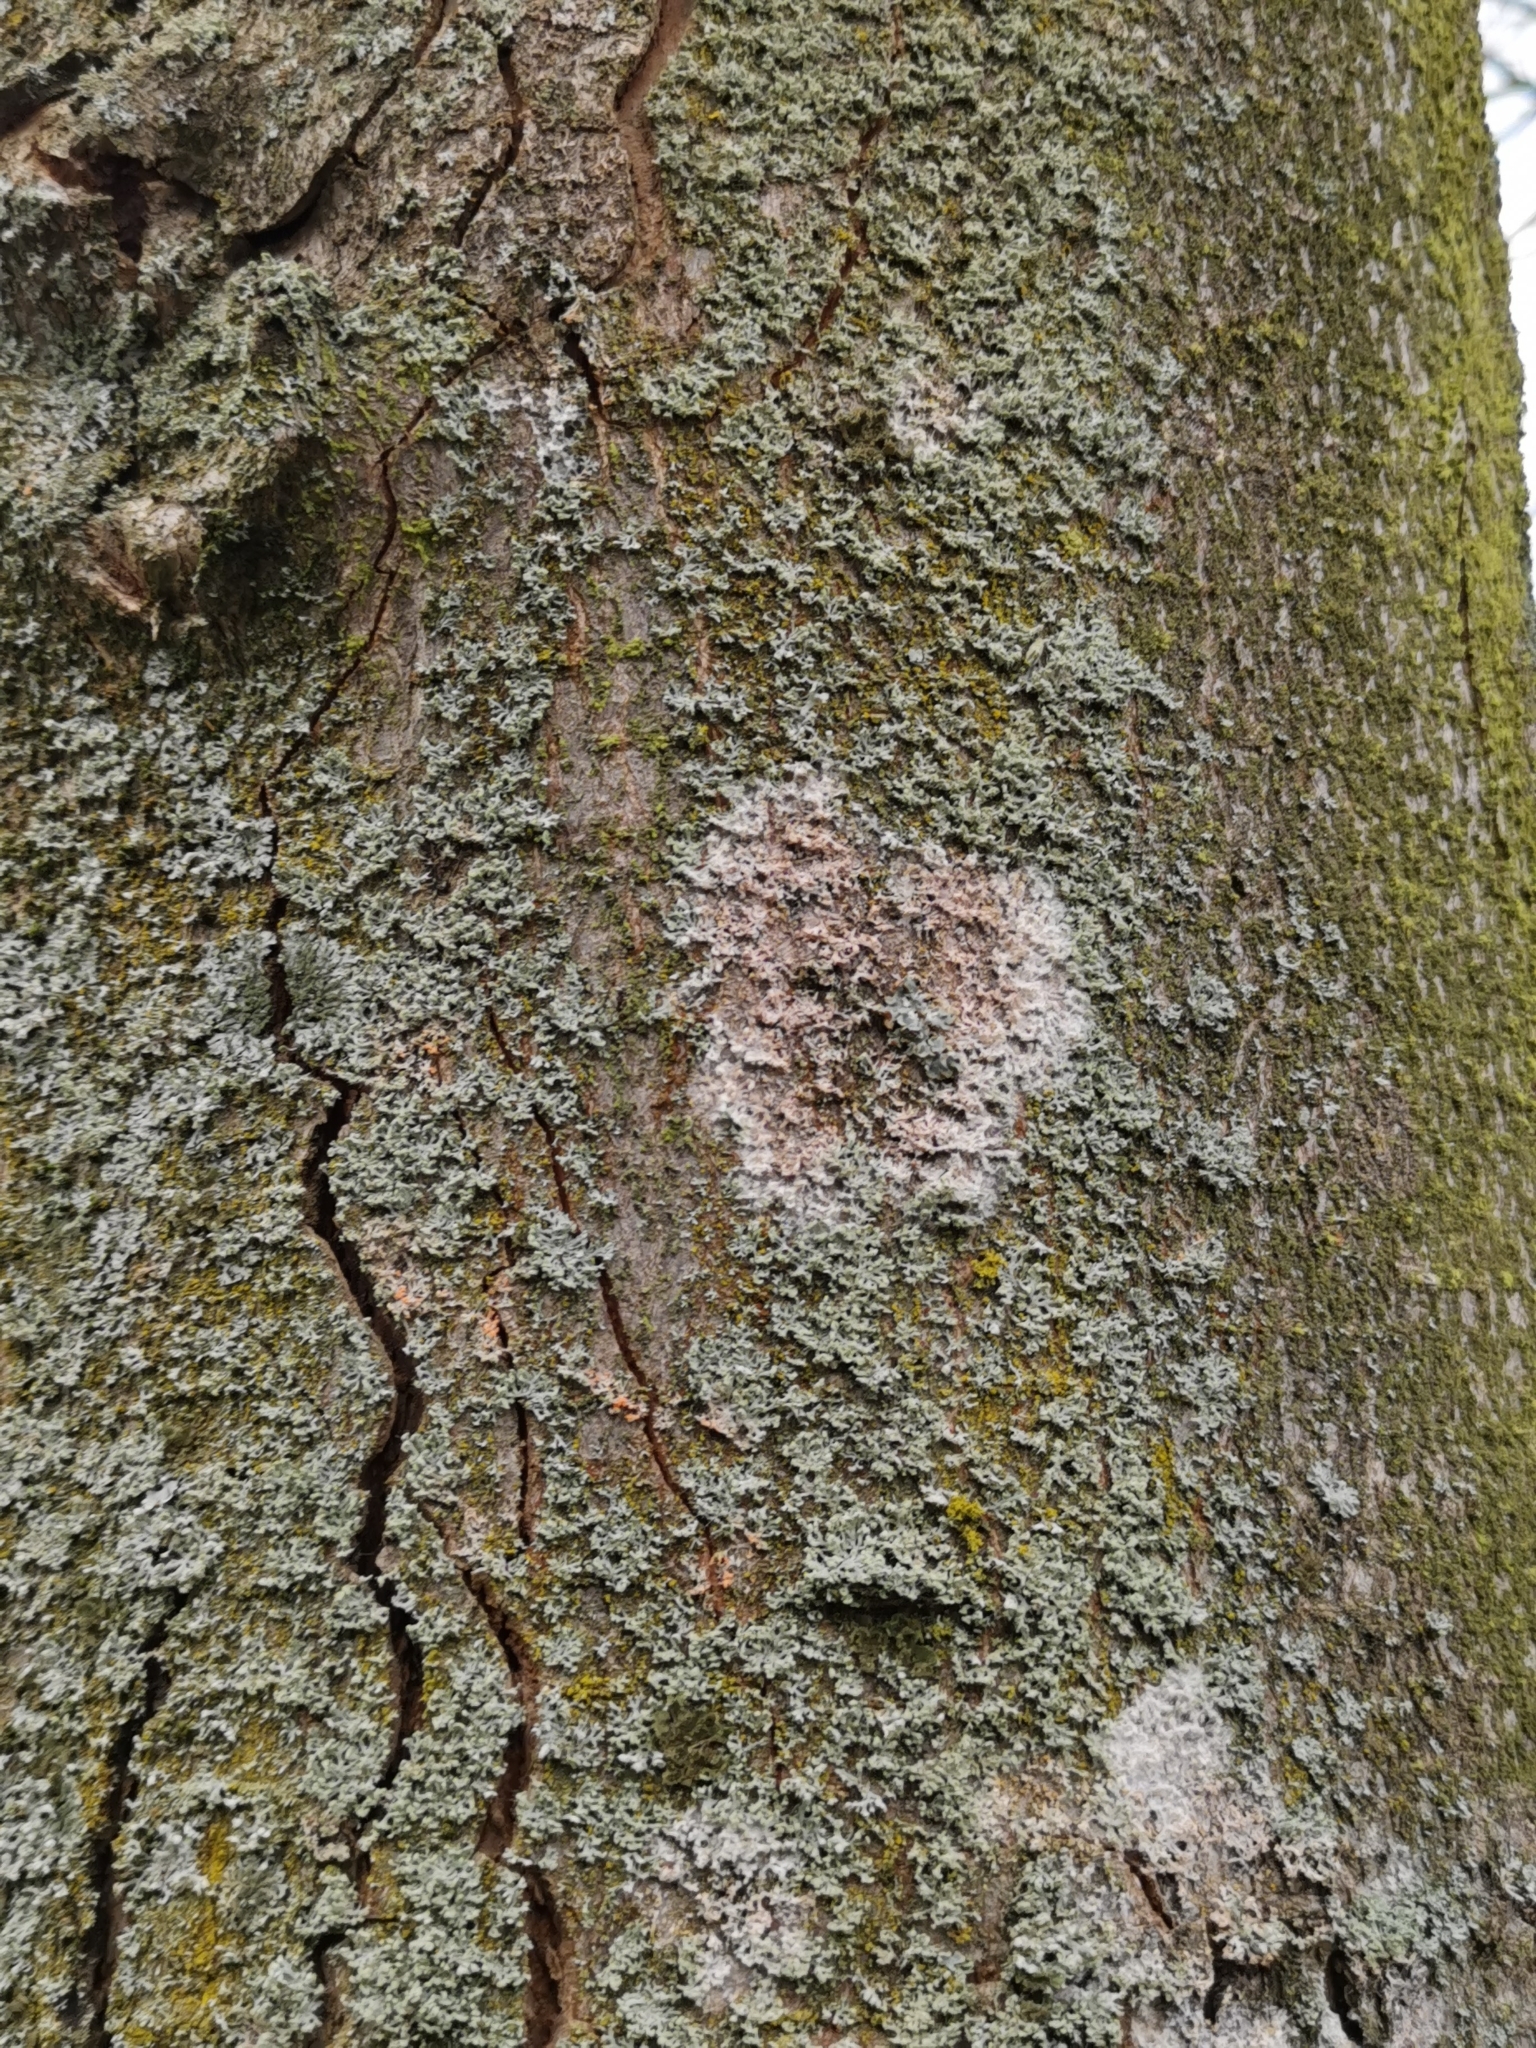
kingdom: Fungi
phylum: Basidiomycota
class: Agaricomycetes
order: Atheliales
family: Atheliaceae
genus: Athelia
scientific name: Athelia arachnoidea
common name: Candelabra duster
